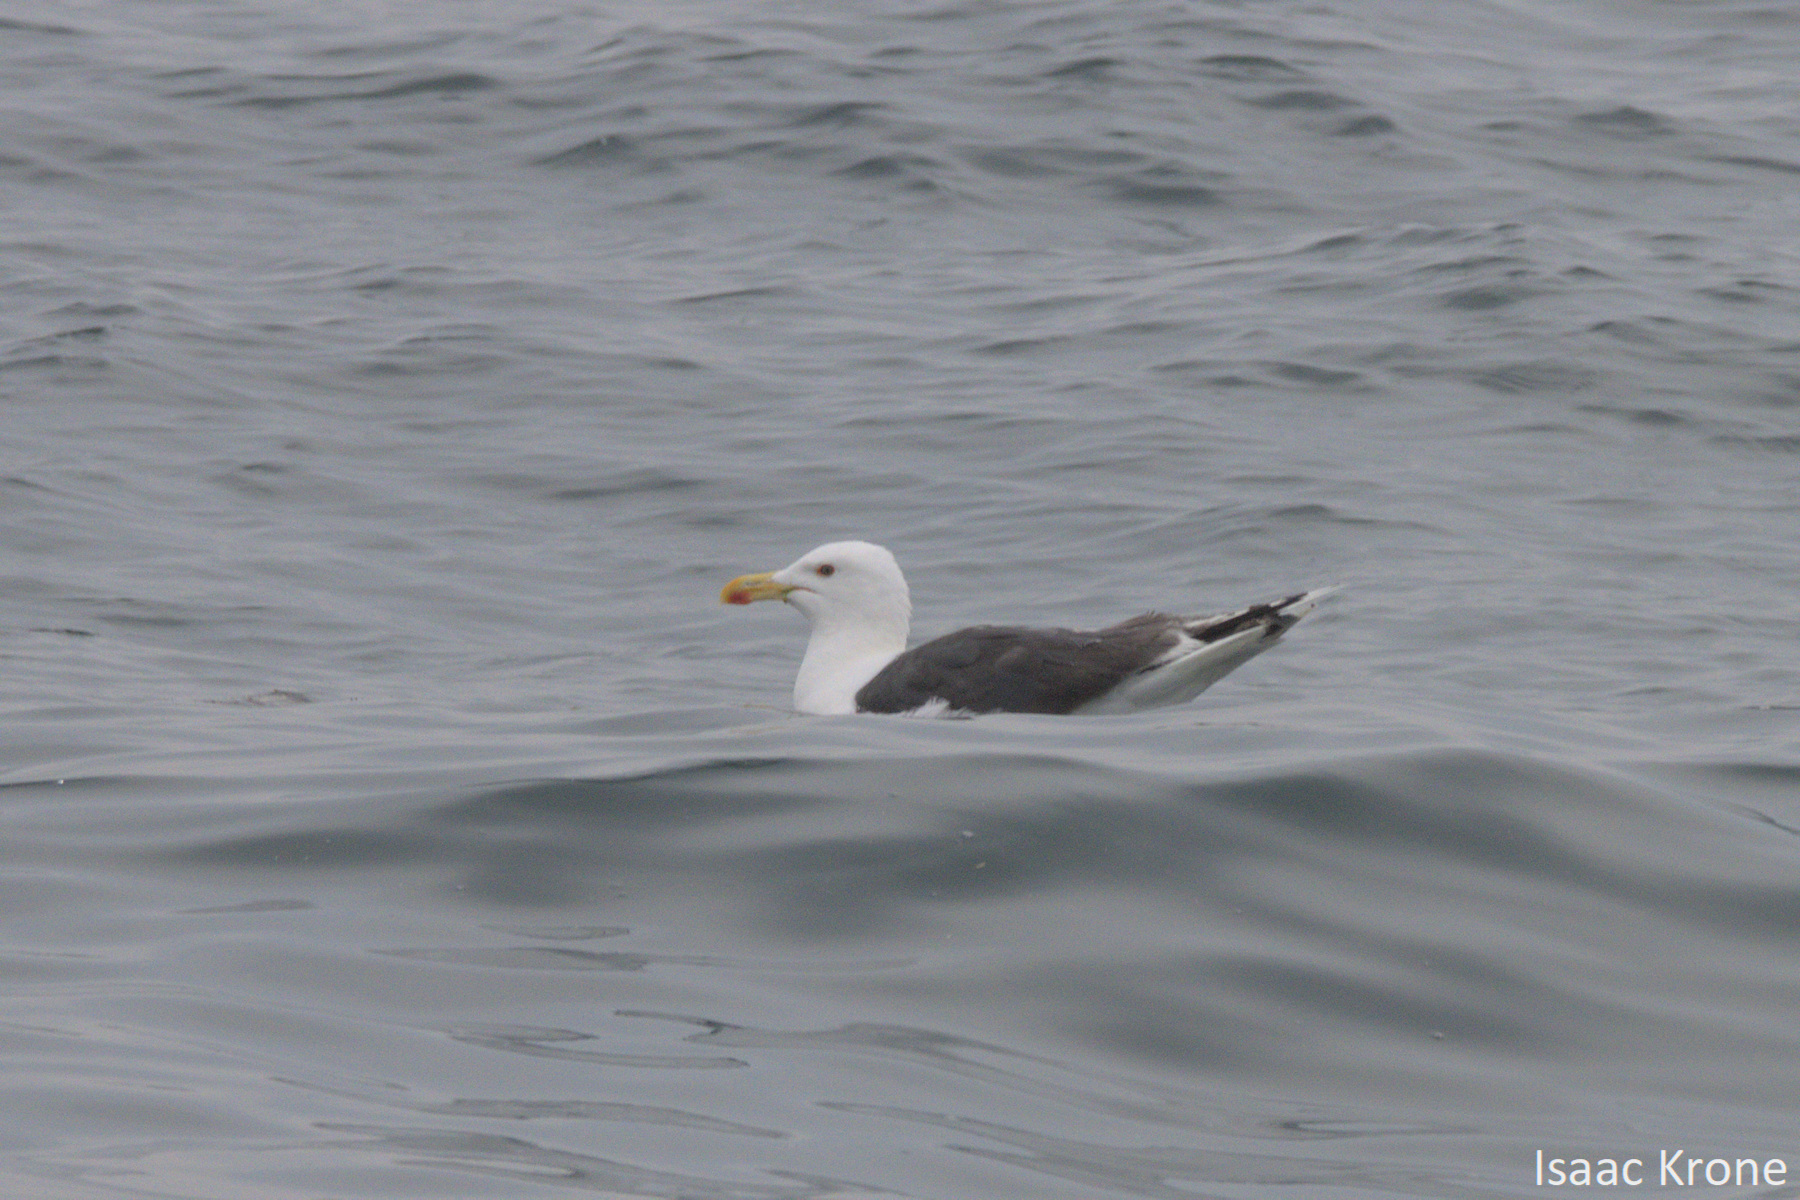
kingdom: Animalia
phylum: Chordata
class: Aves
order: Charadriiformes
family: Laridae
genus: Larus
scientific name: Larus marinus
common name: Great black-backed gull
